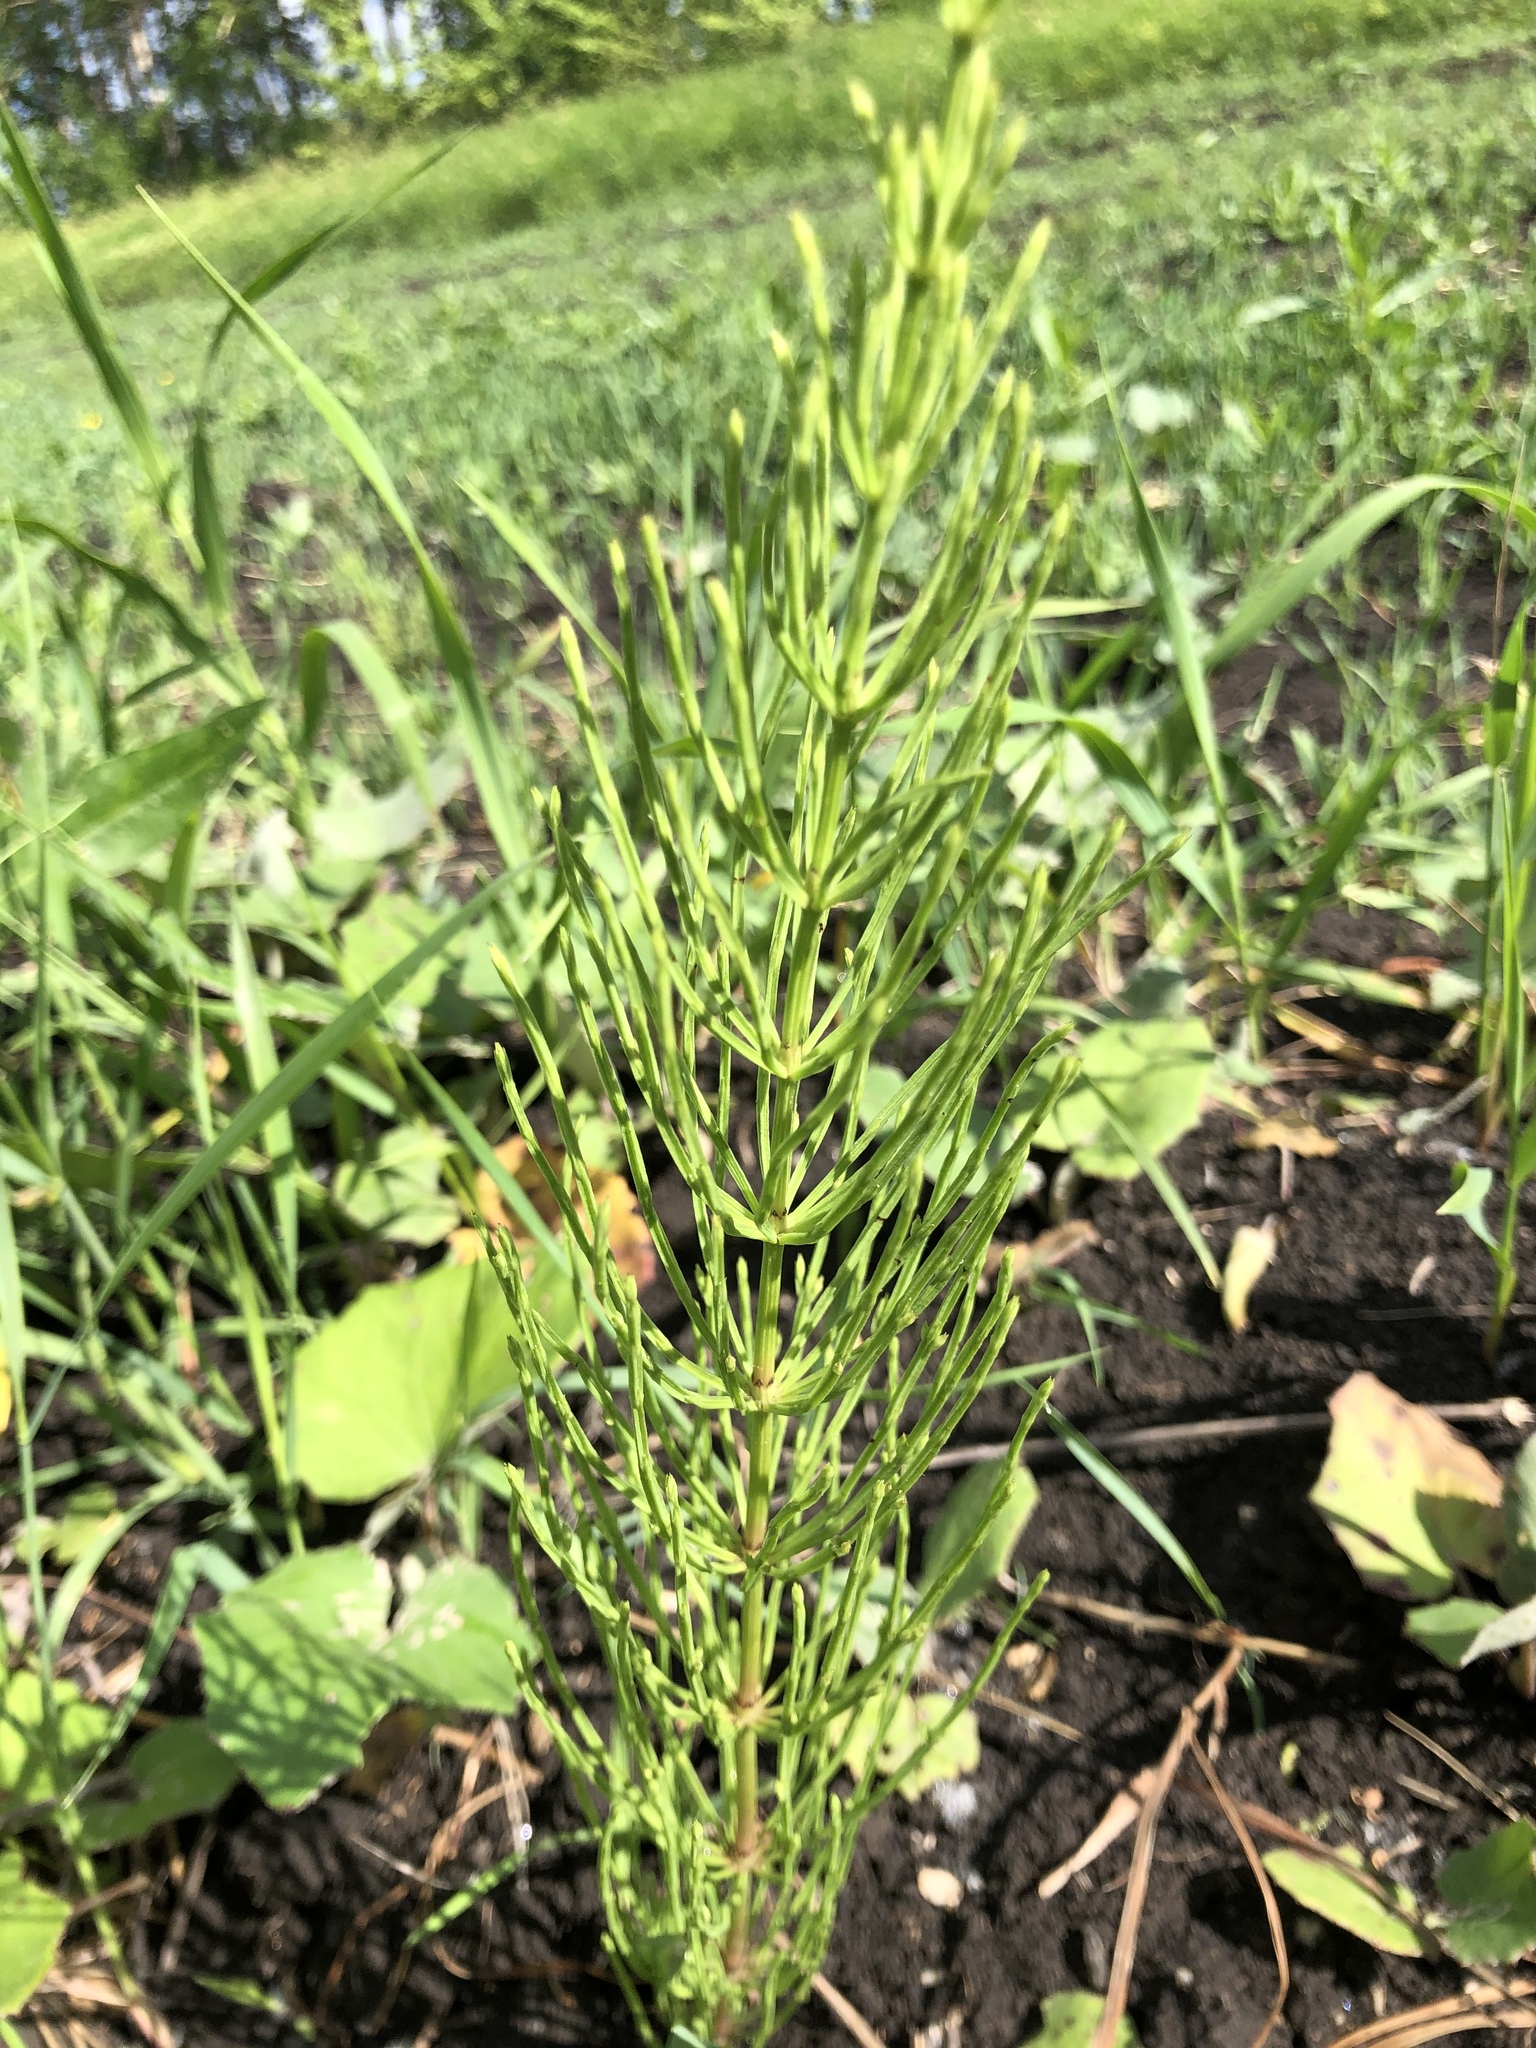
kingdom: Plantae
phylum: Tracheophyta
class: Polypodiopsida
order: Equisetales
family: Equisetaceae
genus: Equisetum
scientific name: Equisetum arvense
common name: Field horsetail
